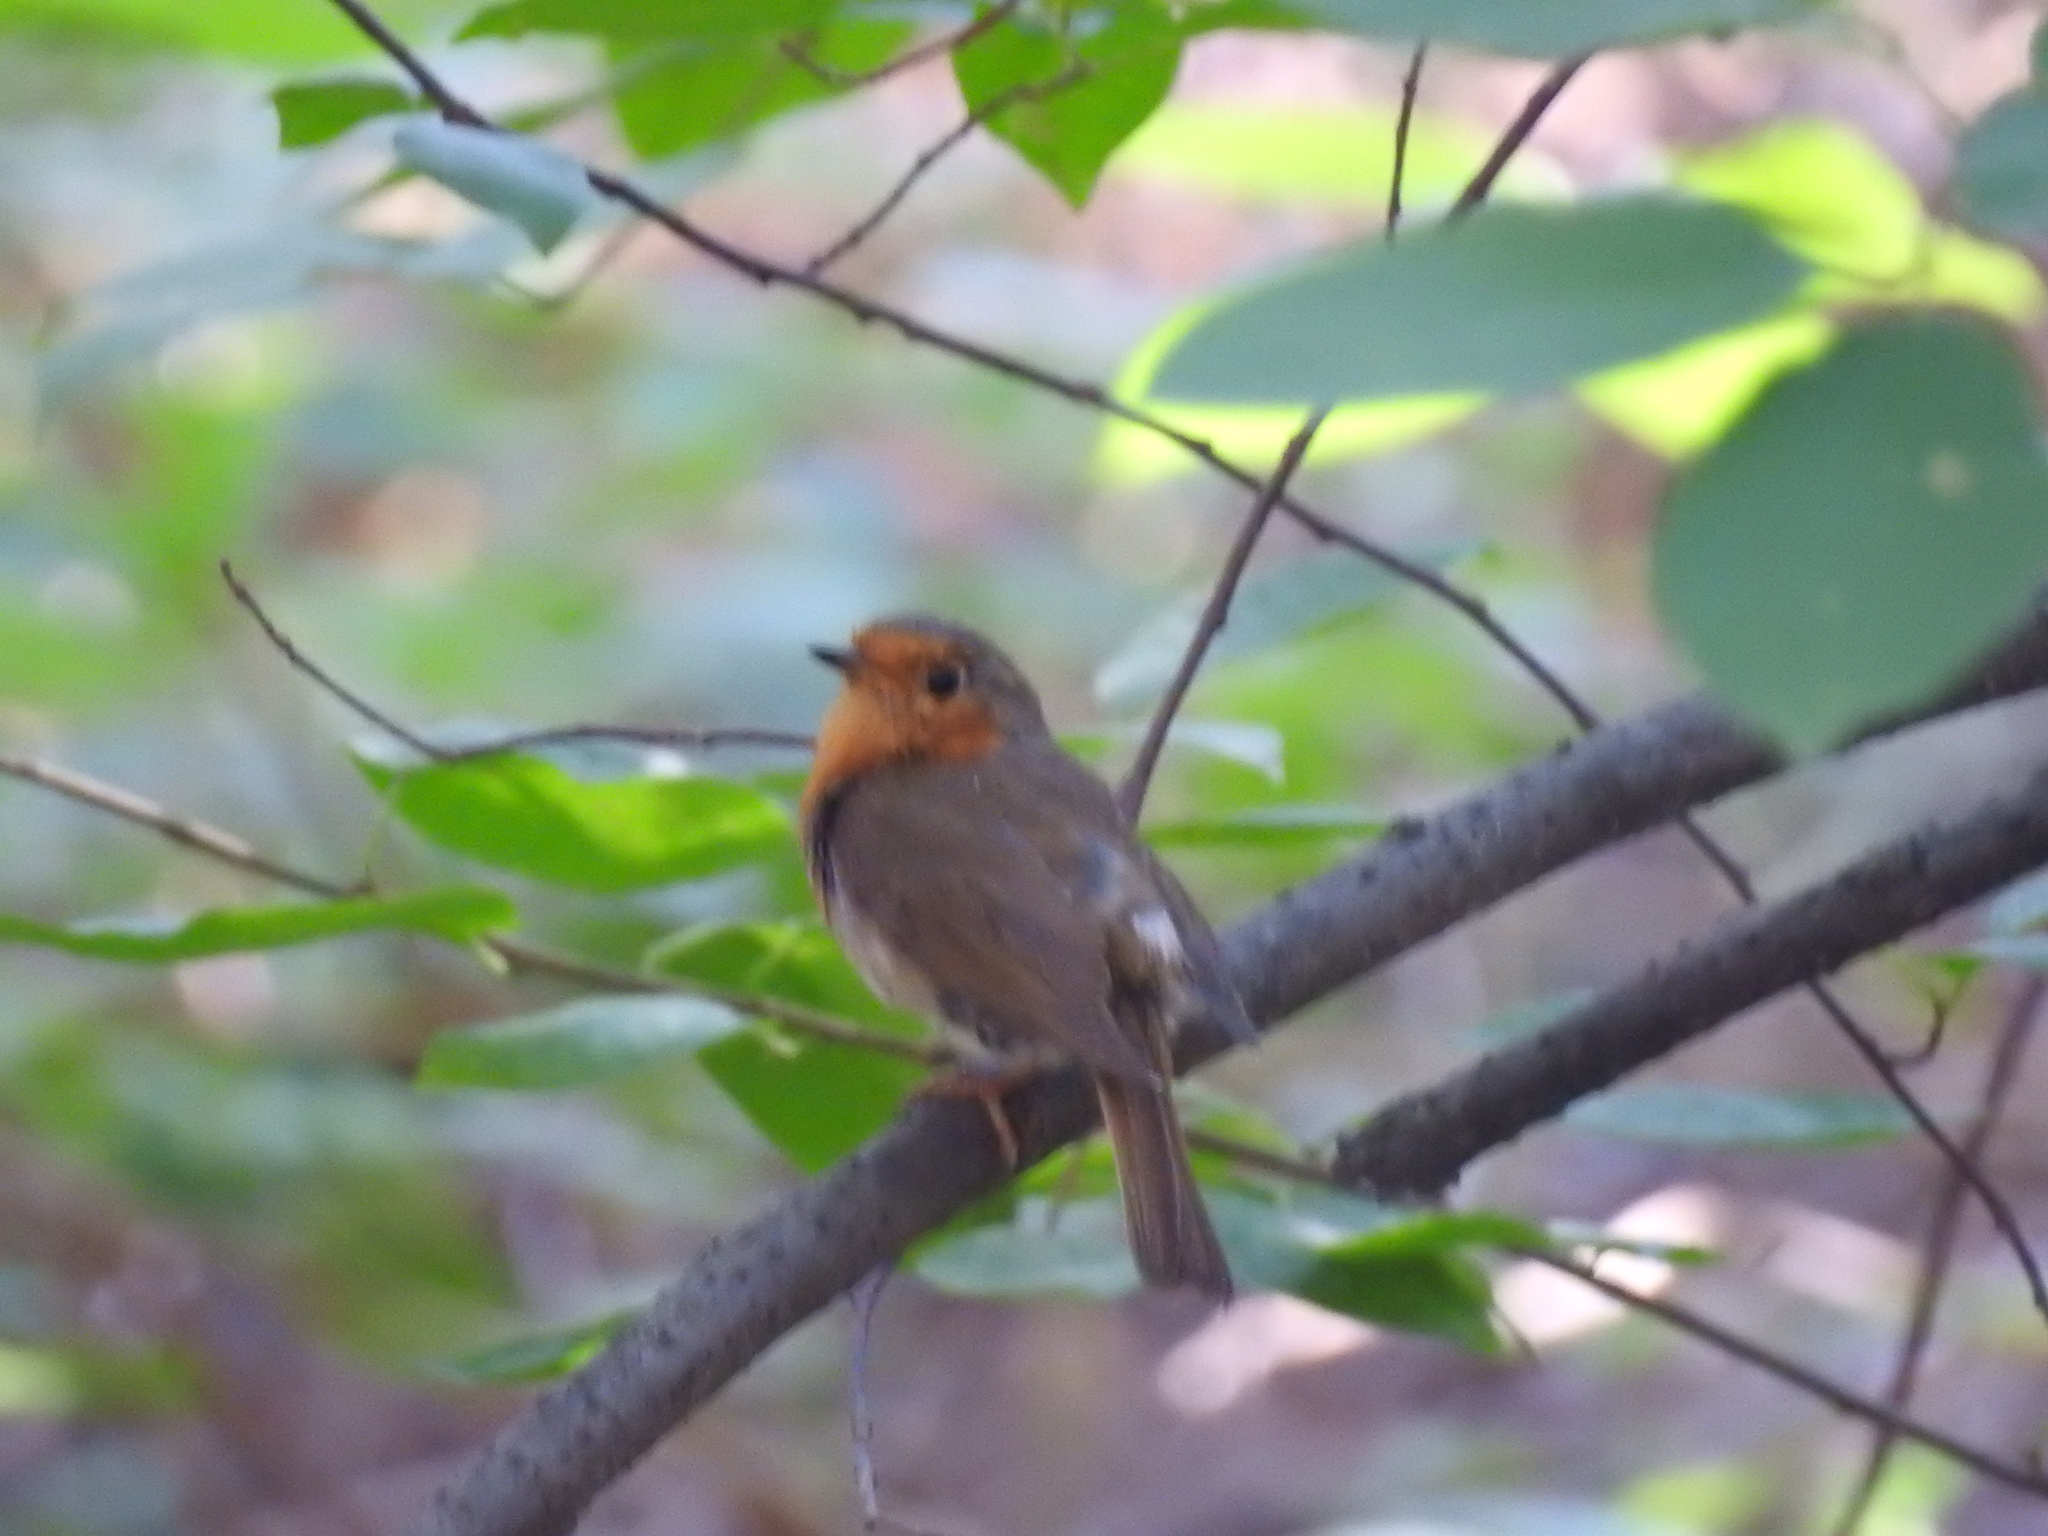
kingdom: Animalia
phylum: Chordata
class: Aves
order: Passeriformes
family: Muscicapidae
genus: Erithacus
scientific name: Erithacus rubecula
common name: European robin
